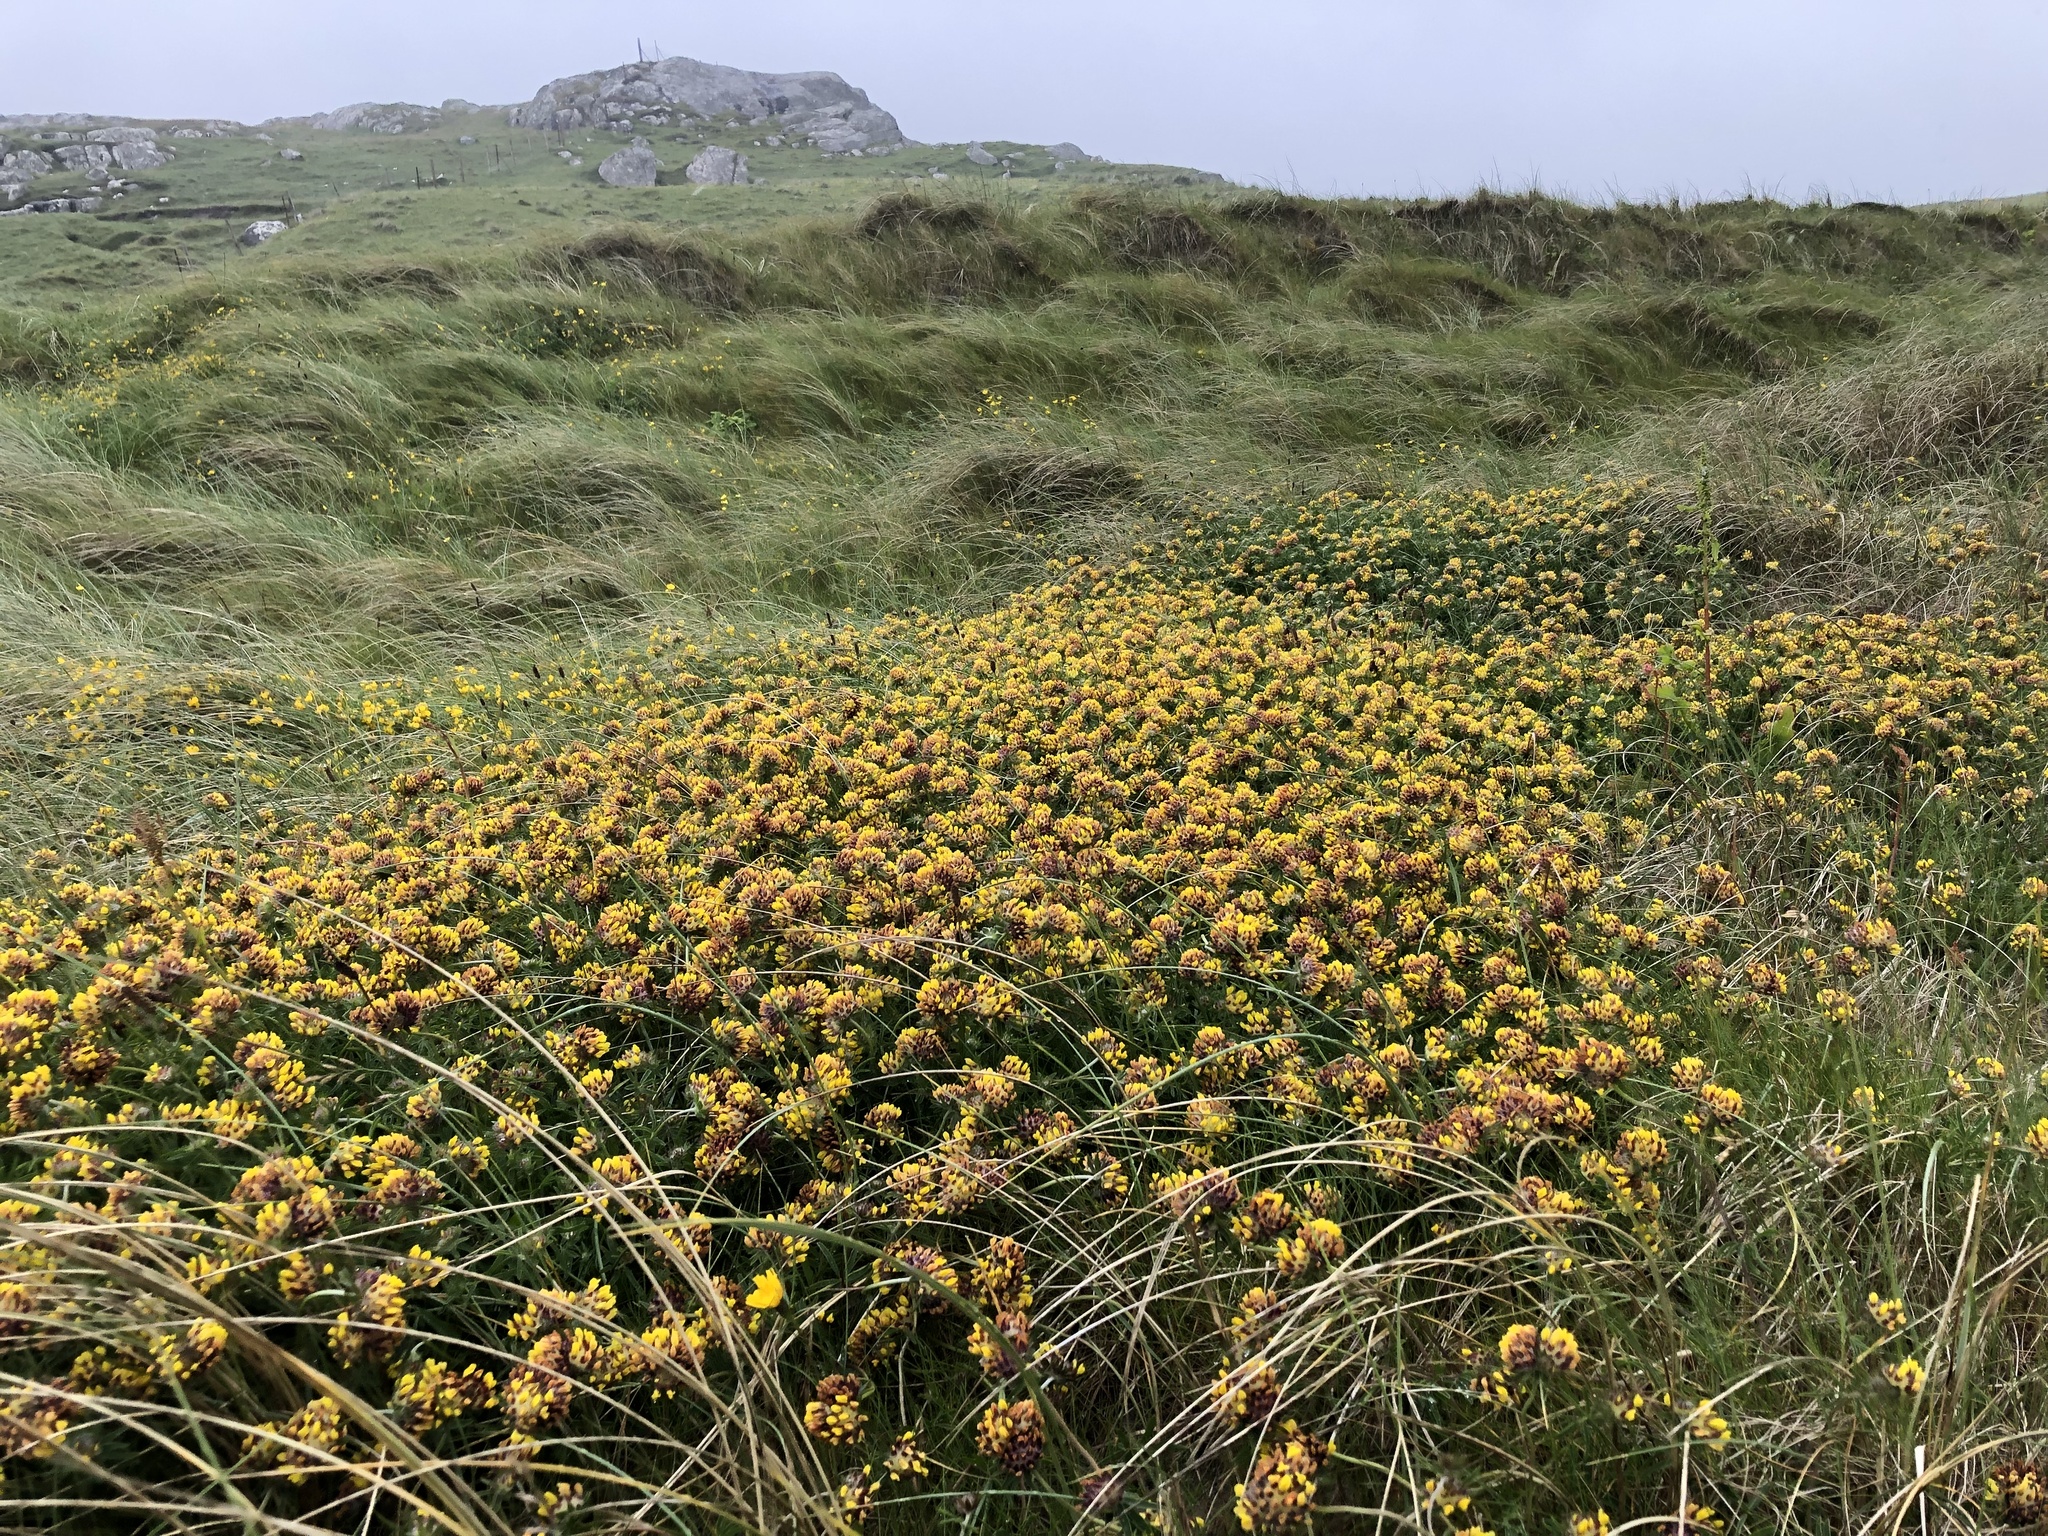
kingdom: Plantae
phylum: Tracheophyta
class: Magnoliopsida
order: Fabales
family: Fabaceae
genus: Anthyllis
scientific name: Anthyllis vulneraria
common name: Kidney vetch
